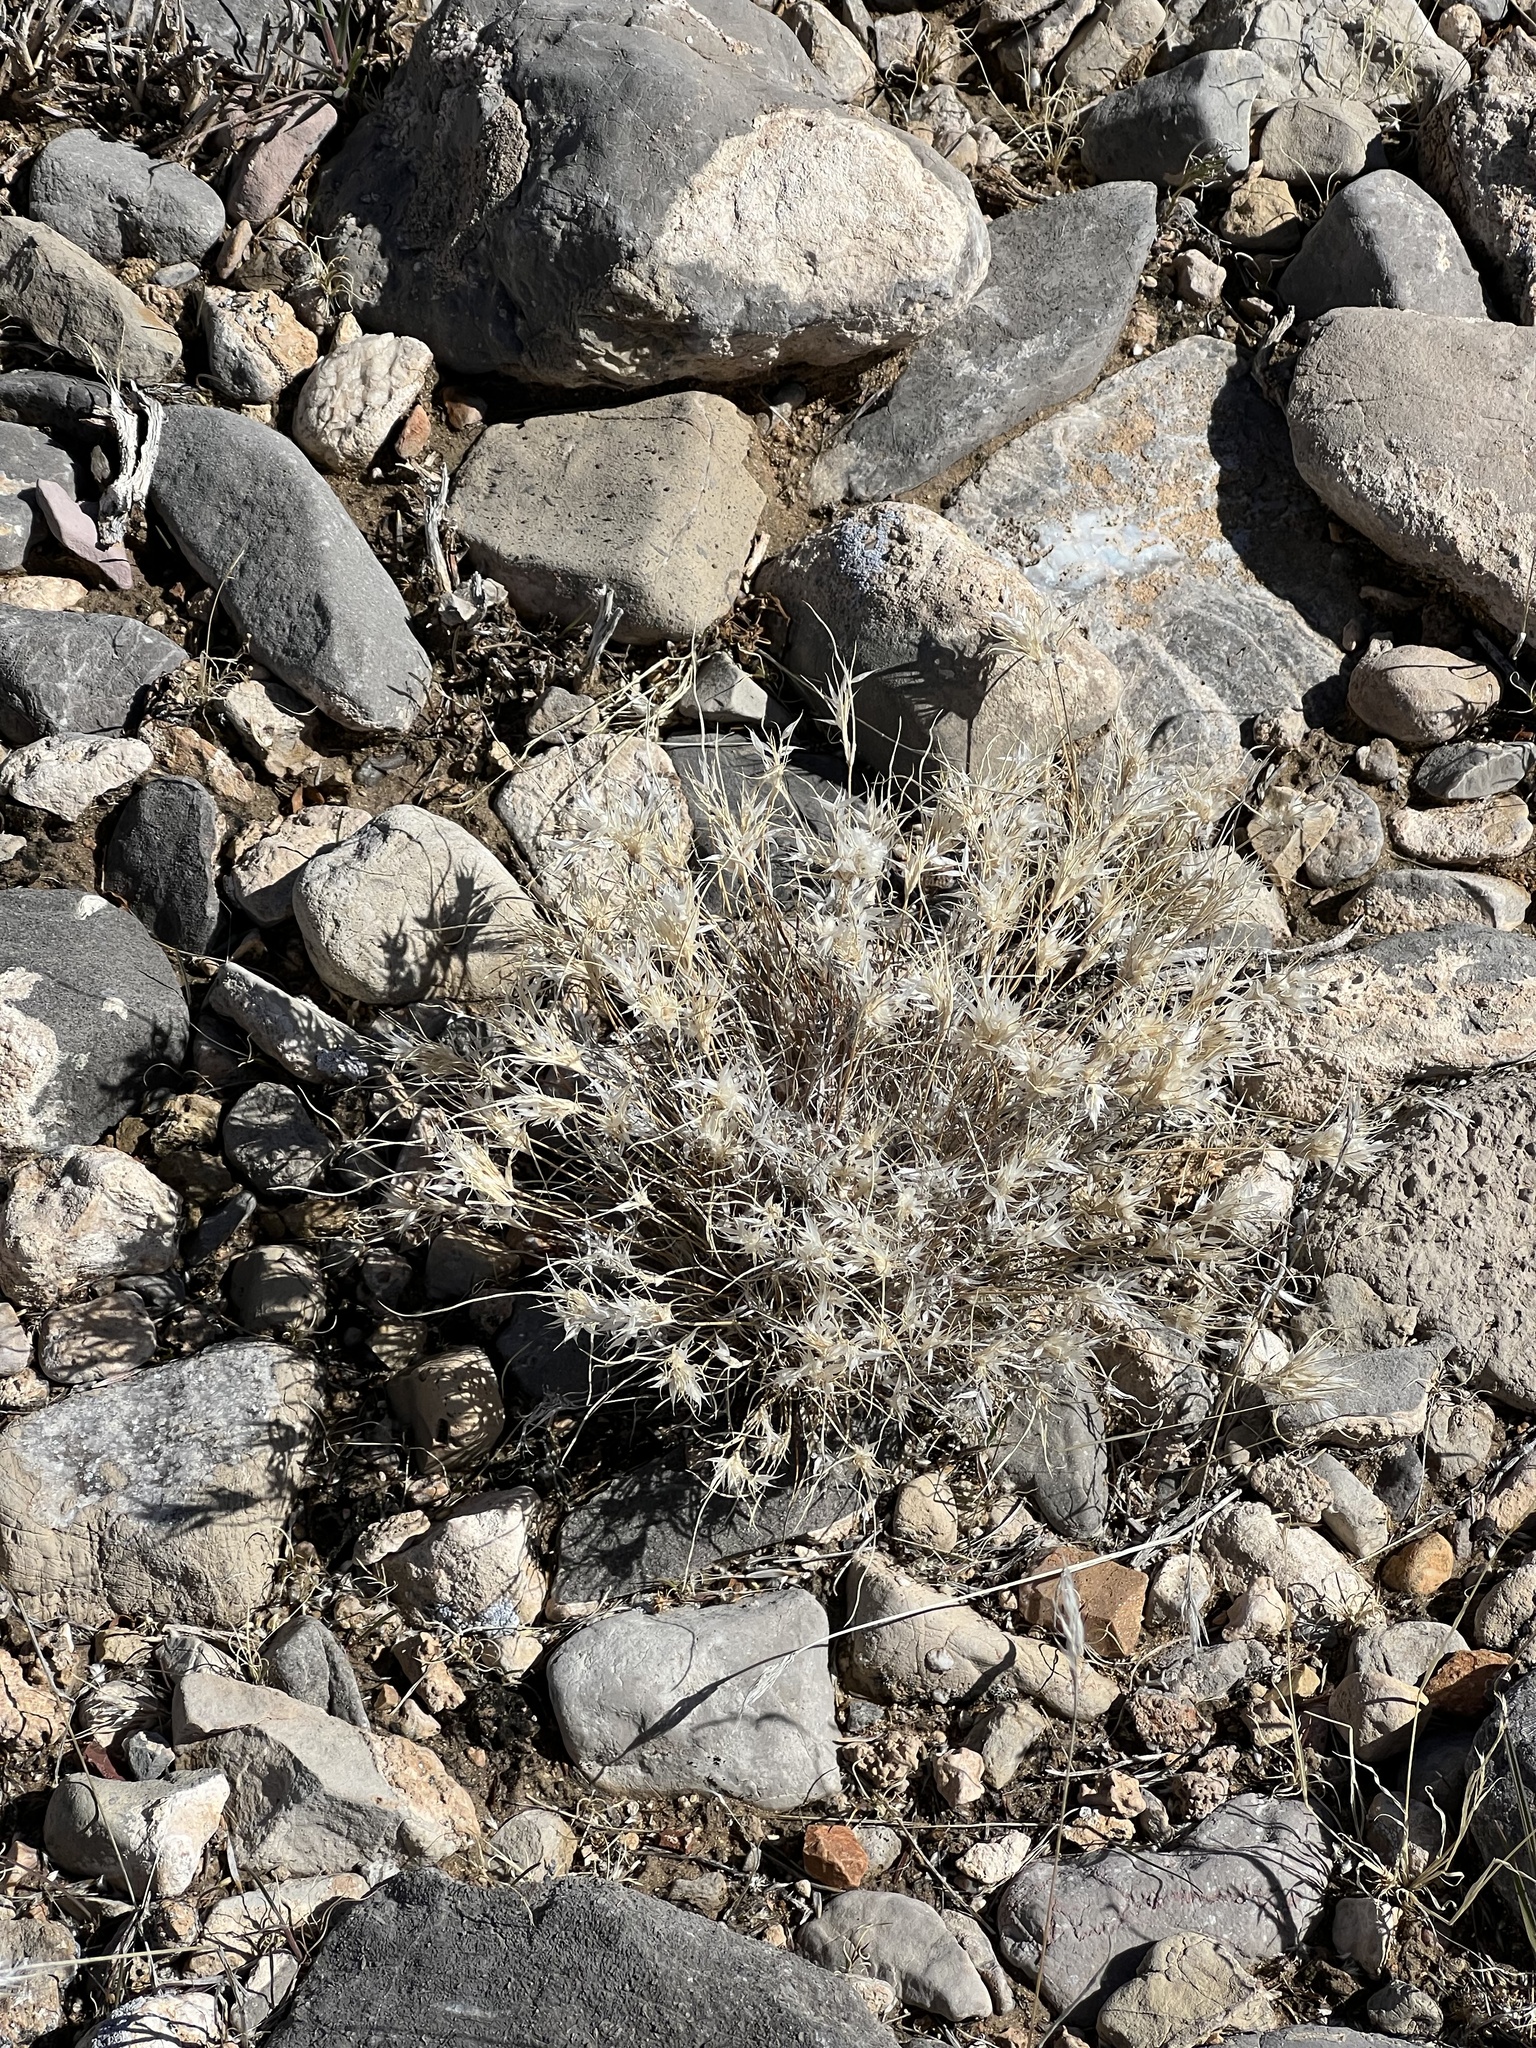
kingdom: Plantae
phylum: Tracheophyta
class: Liliopsida
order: Poales
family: Poaceae
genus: Dasyochloa
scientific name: Dasyochloa pulchella
